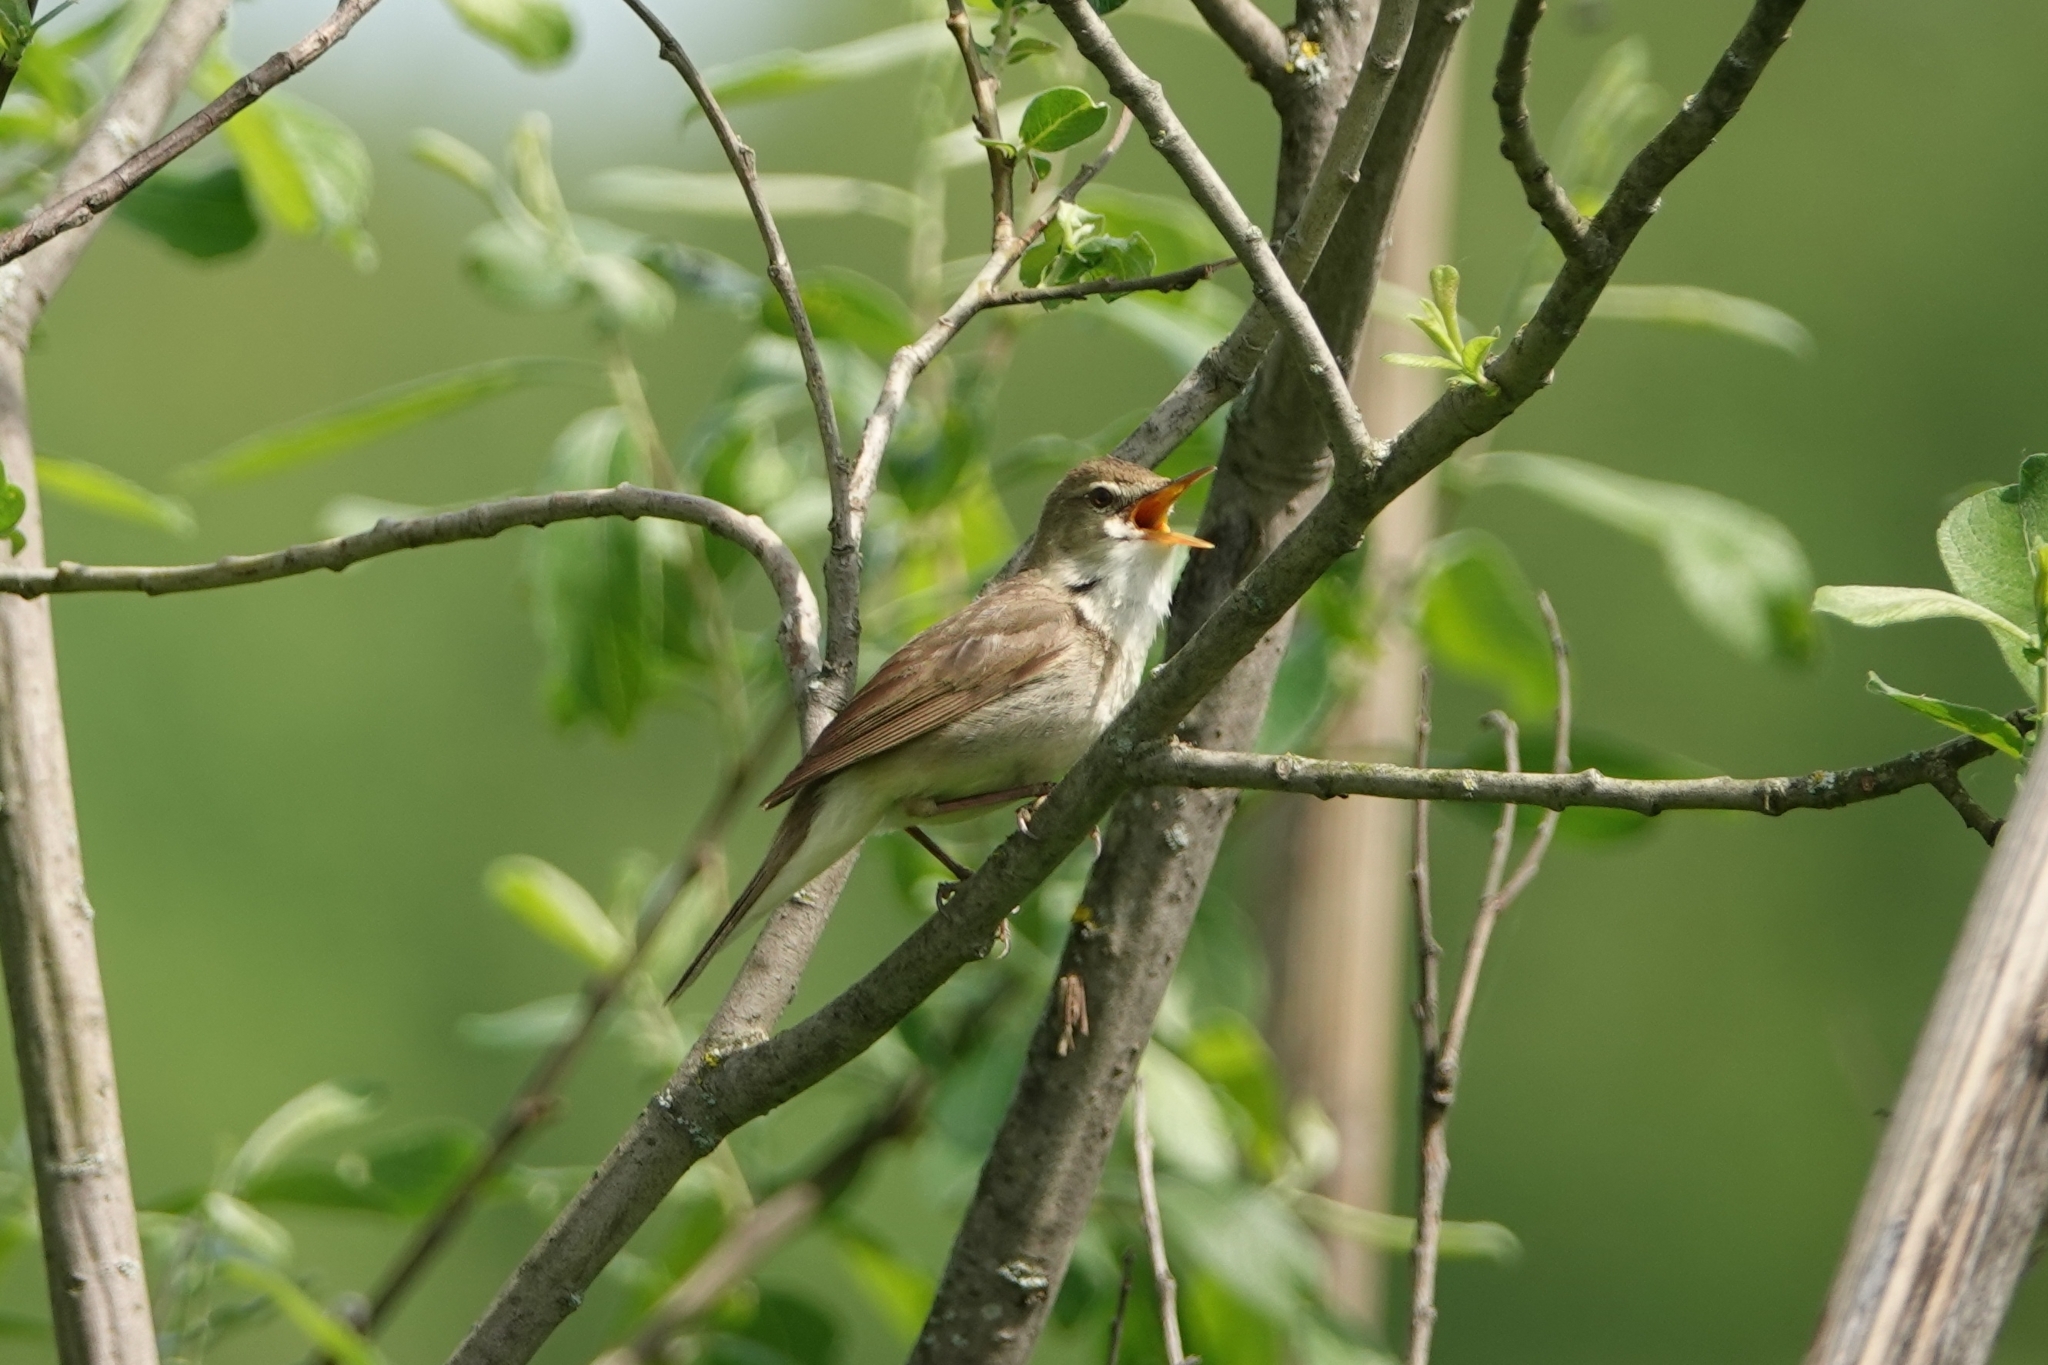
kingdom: Animalia
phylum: Chordata
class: Aves
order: Passeriformes
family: Acrocephalidae
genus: Acrocephalus
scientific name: Acrocephalus dumetorum
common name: Blyth's reed warbler
